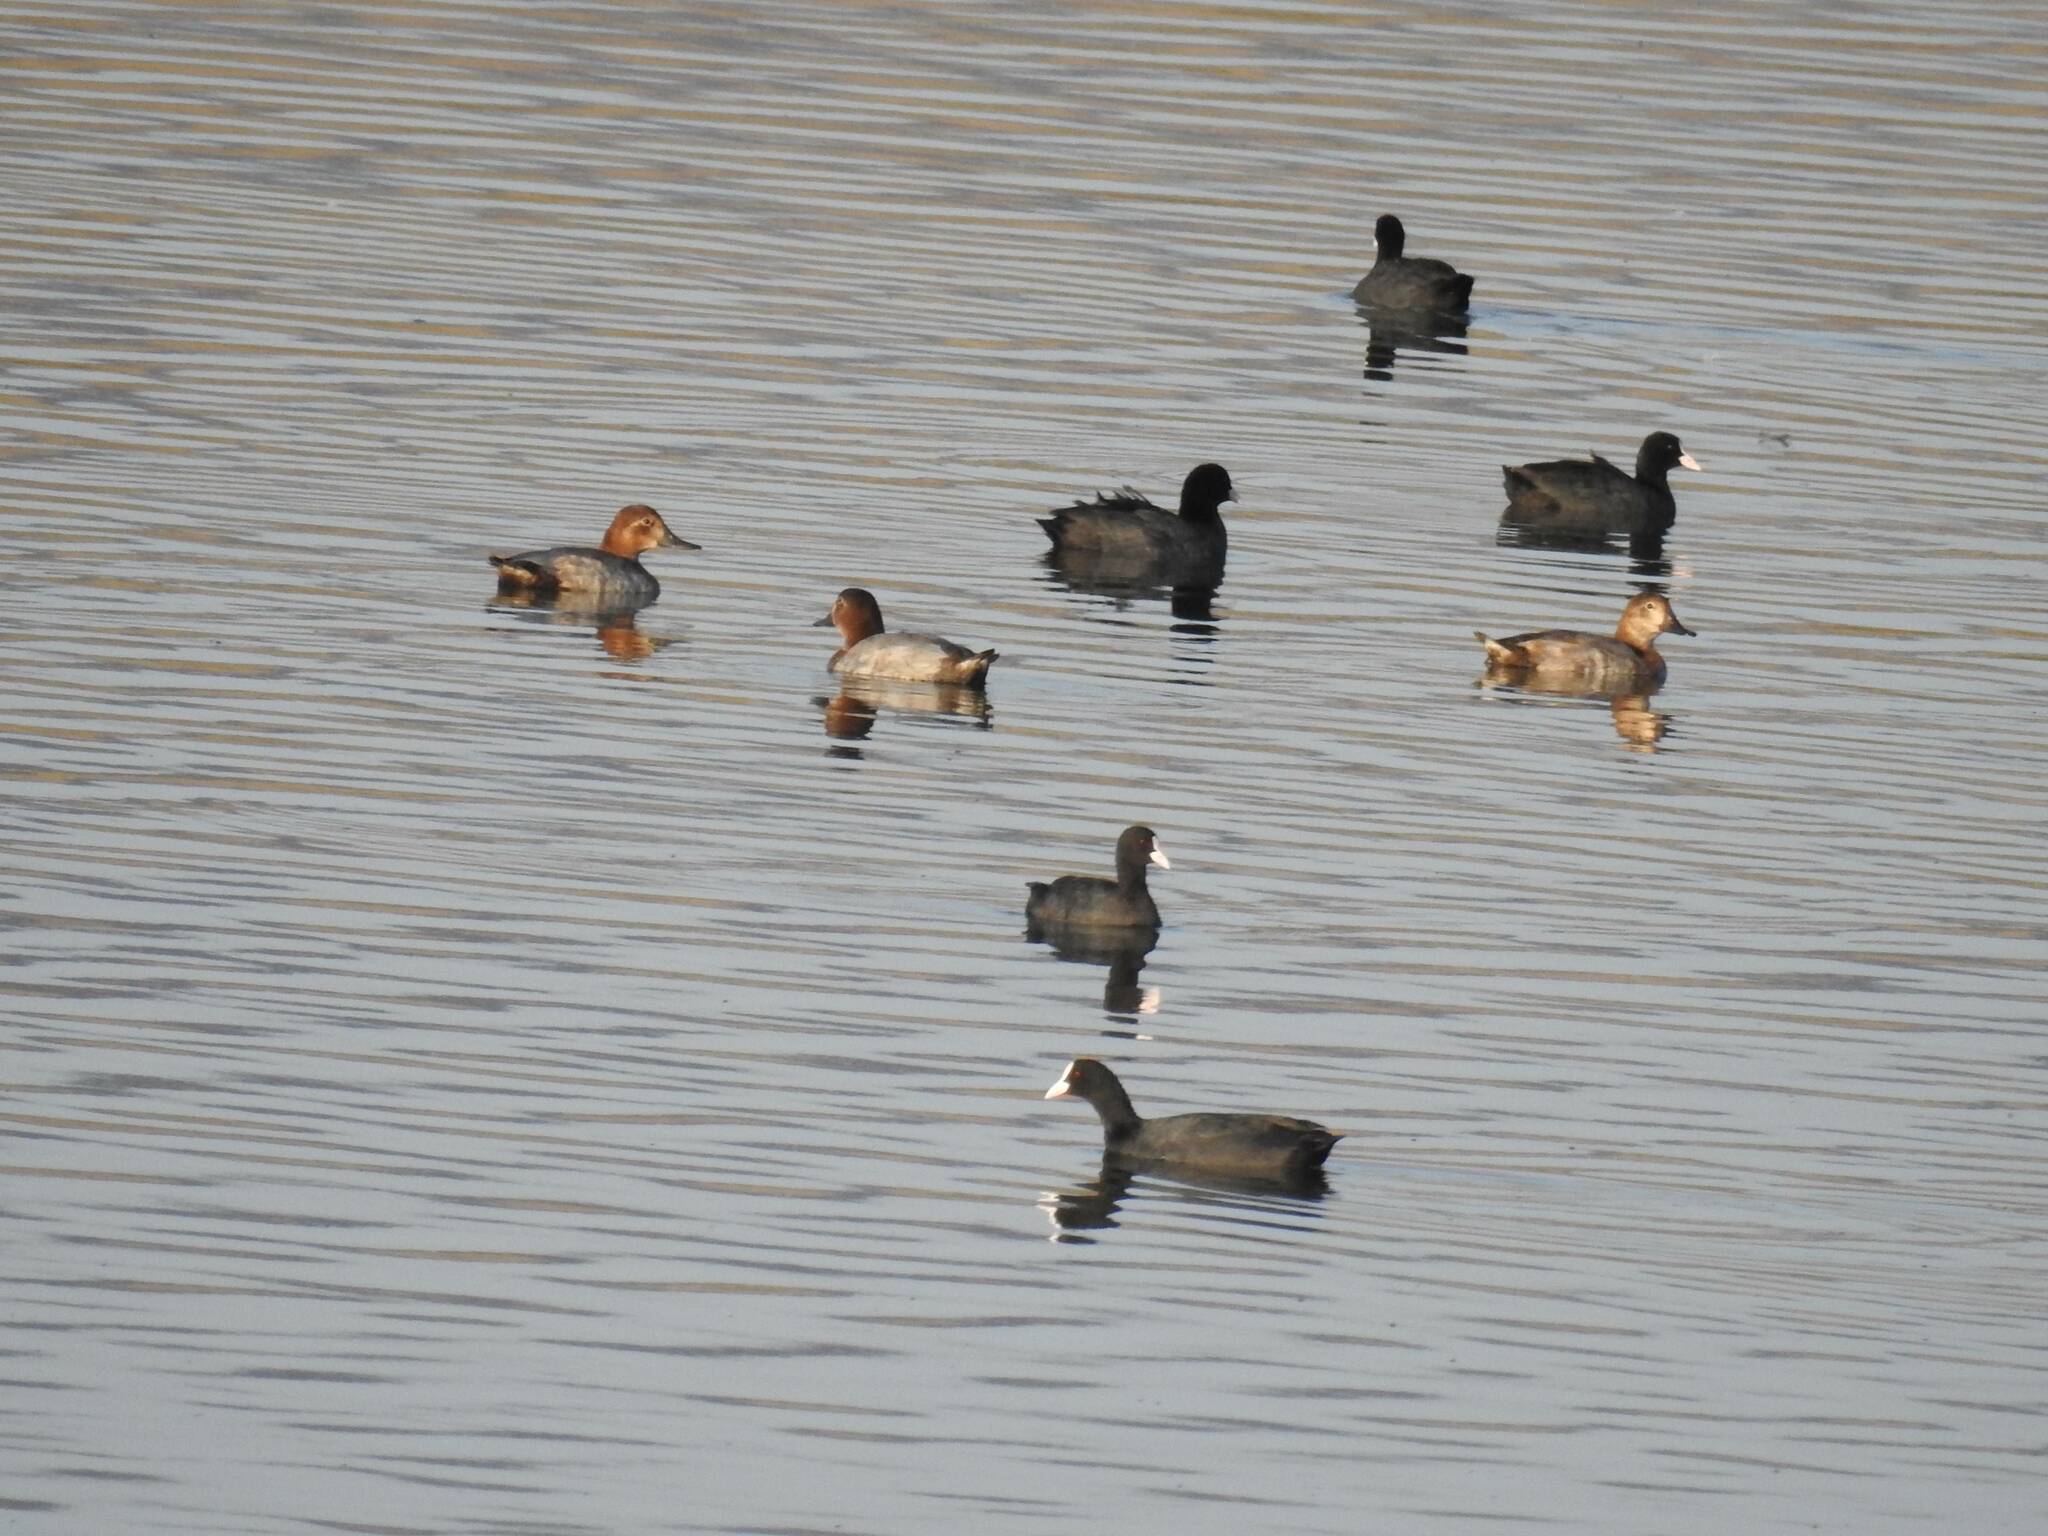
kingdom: Animalia
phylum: Chordata
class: Aves
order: Gruiformes
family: Rallidae
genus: Fulica
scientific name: Fulica atra
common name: Eurasian coot
